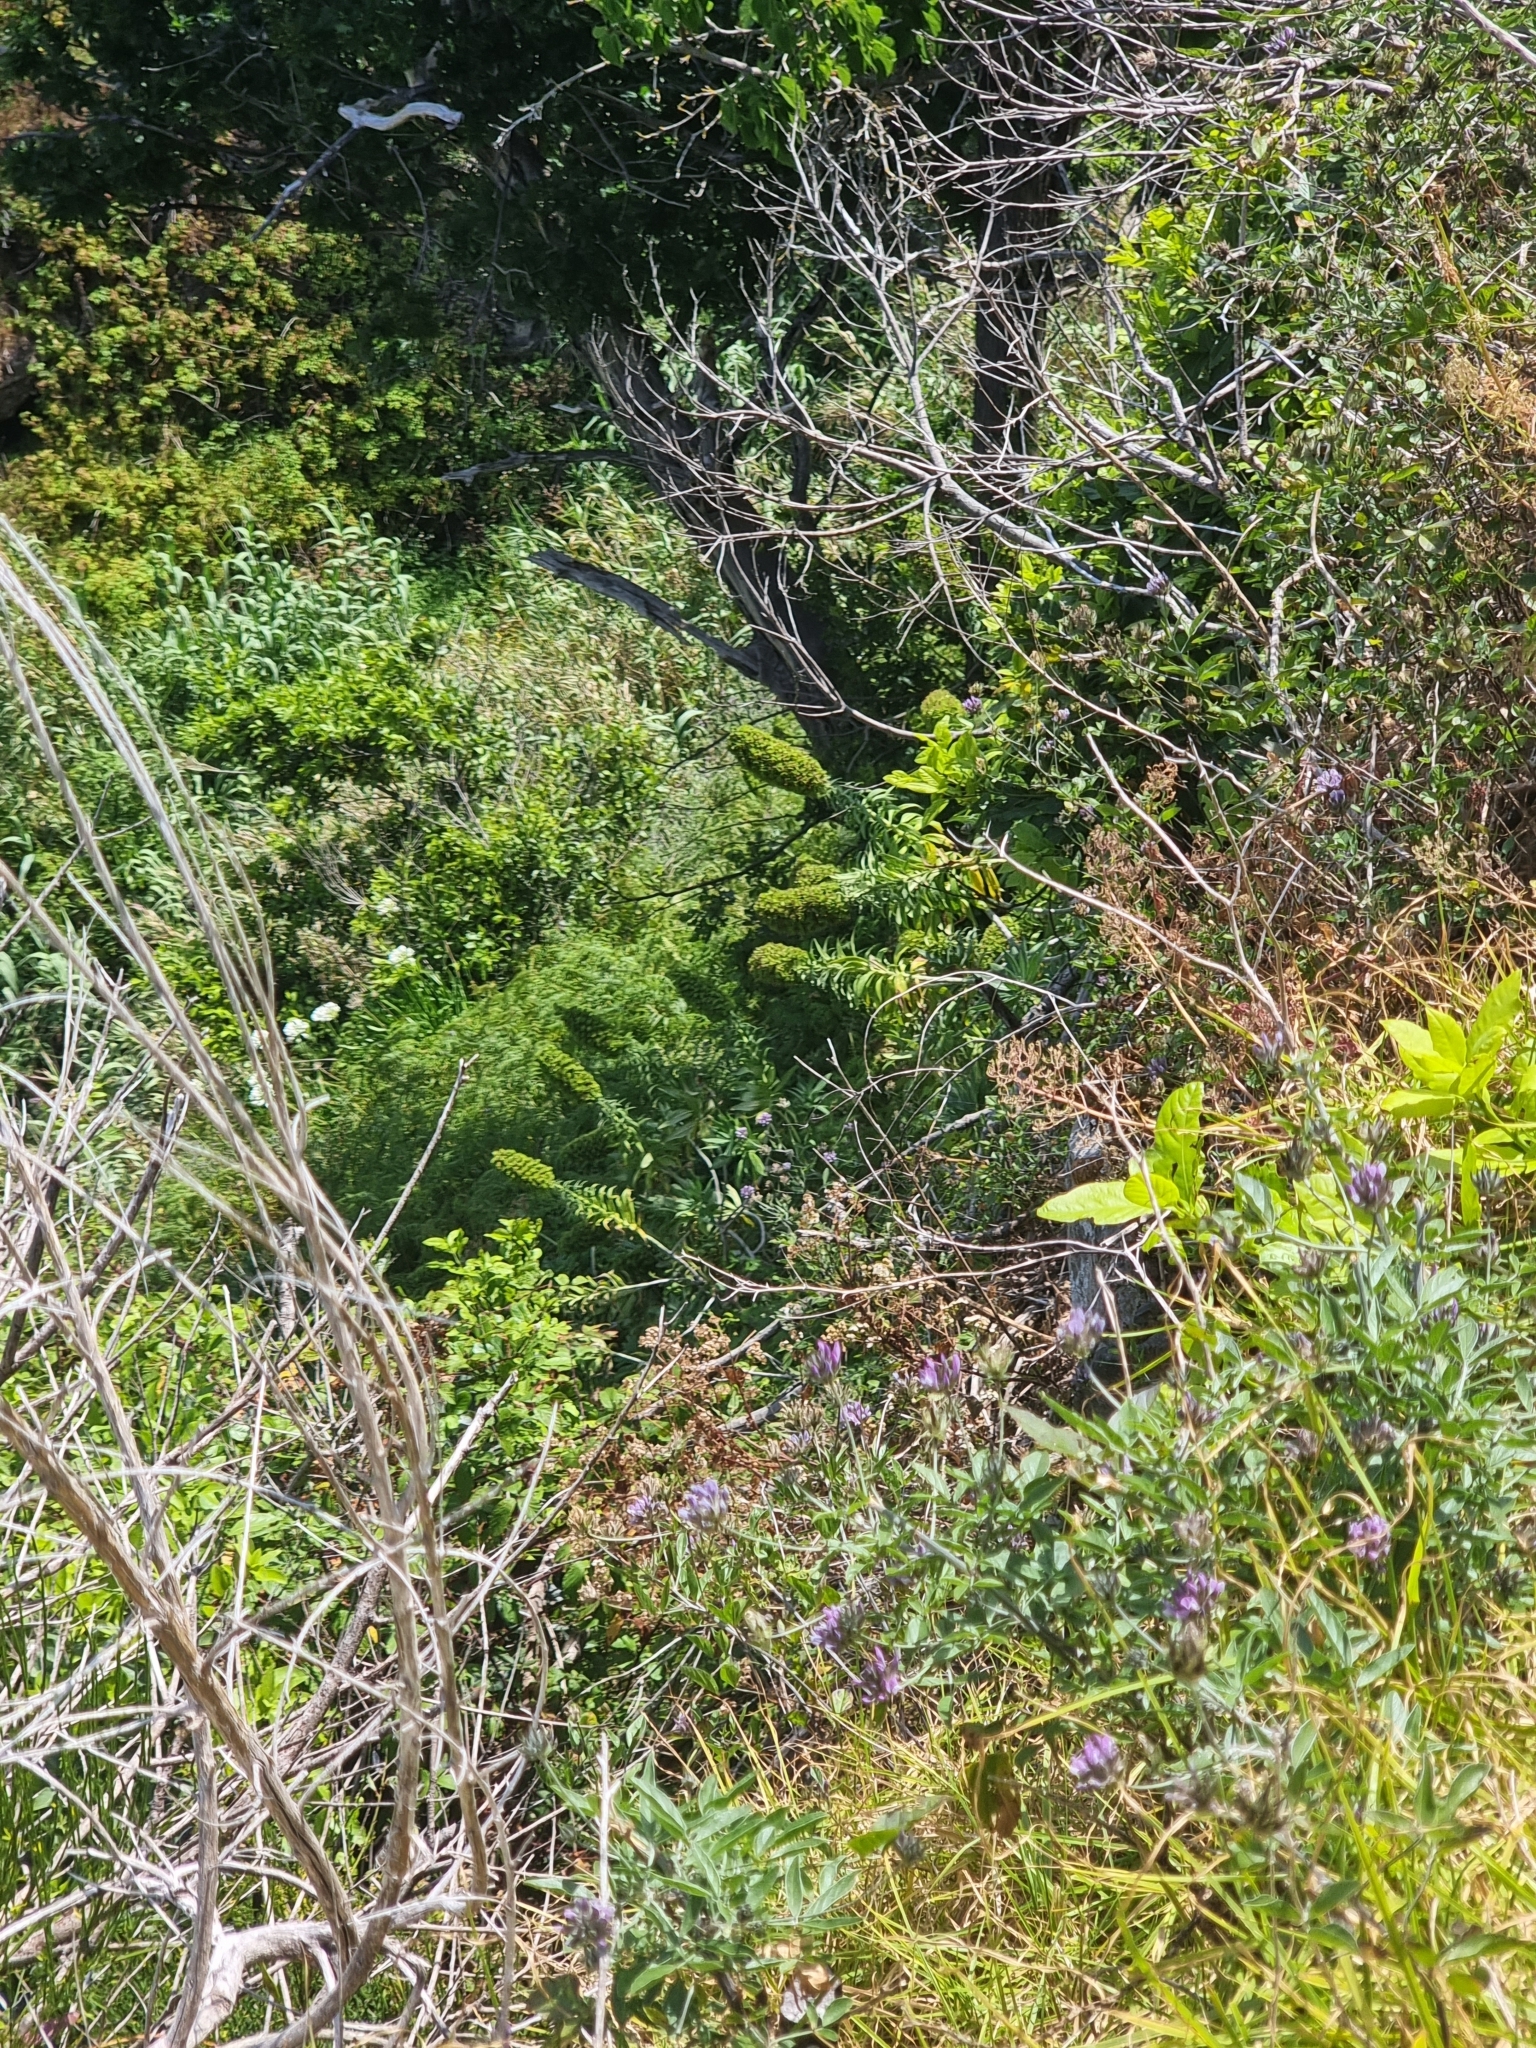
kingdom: Plantae
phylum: Tracheophyta
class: Magnoliopsida
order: Boraginales
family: Boraginaceae
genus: Echium
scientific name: Echium nervosum
